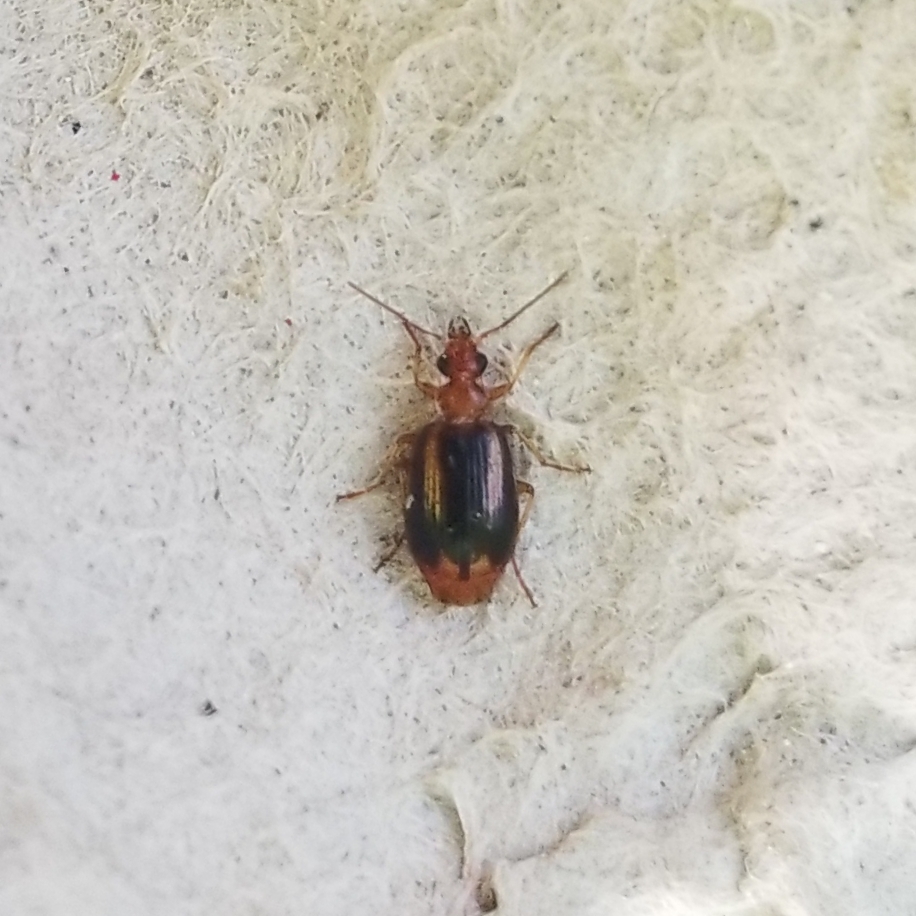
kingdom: Animalia
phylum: Arthropoda
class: Insecta
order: Coleoptera
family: Carabidae
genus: Lebia
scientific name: Lebia solea
